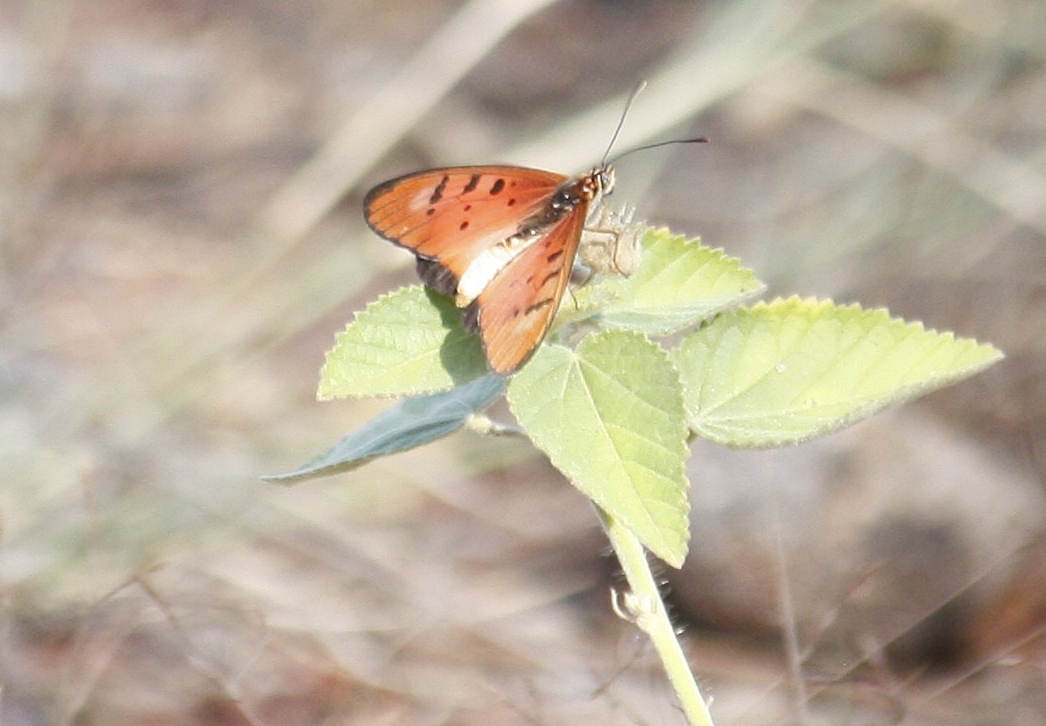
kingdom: Animalia
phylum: Arthropoda
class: Insecta
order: Lepidoptera
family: Nymphalidae
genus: Stephenia
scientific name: Stephenia
